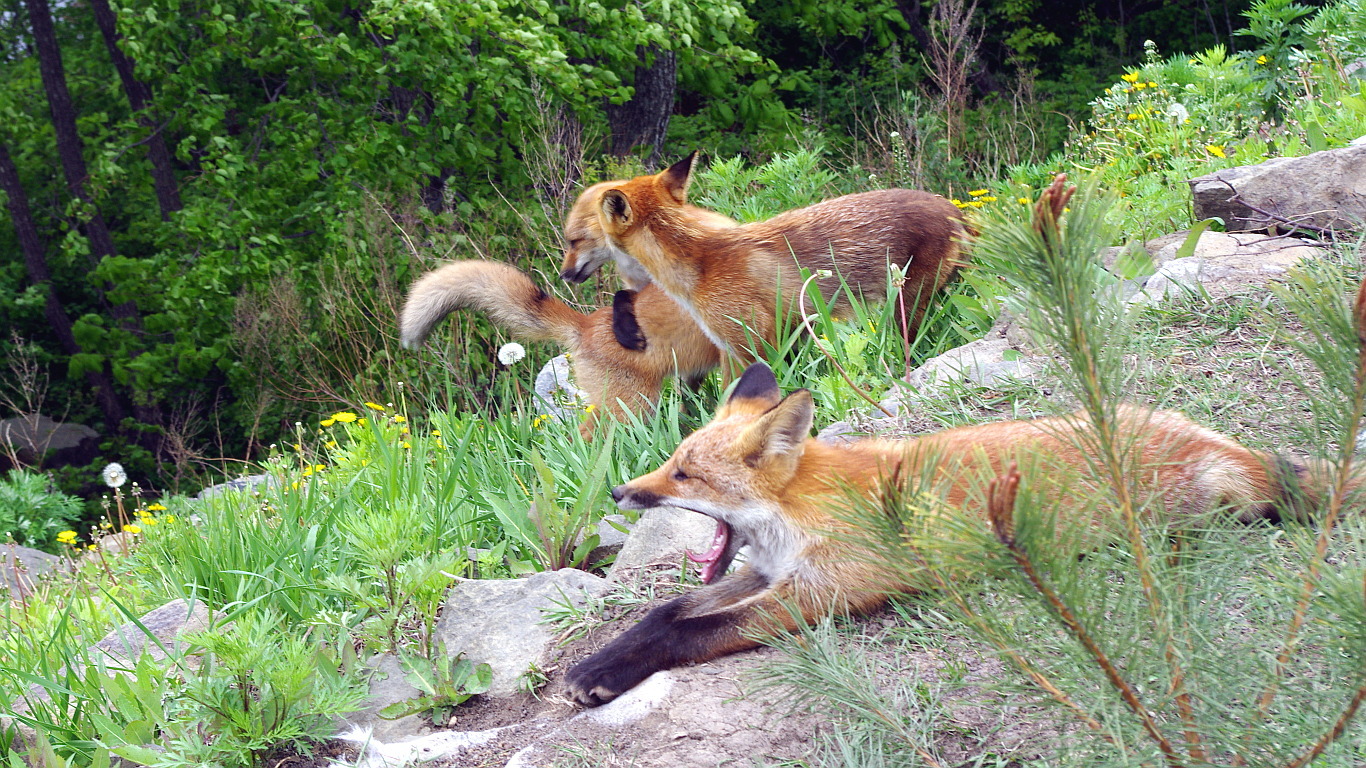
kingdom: Animalia
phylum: Chordata
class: Mammalia
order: Carnivora
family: Canidae
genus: Vulpes
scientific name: Vulpes vulpes
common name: Red fox
